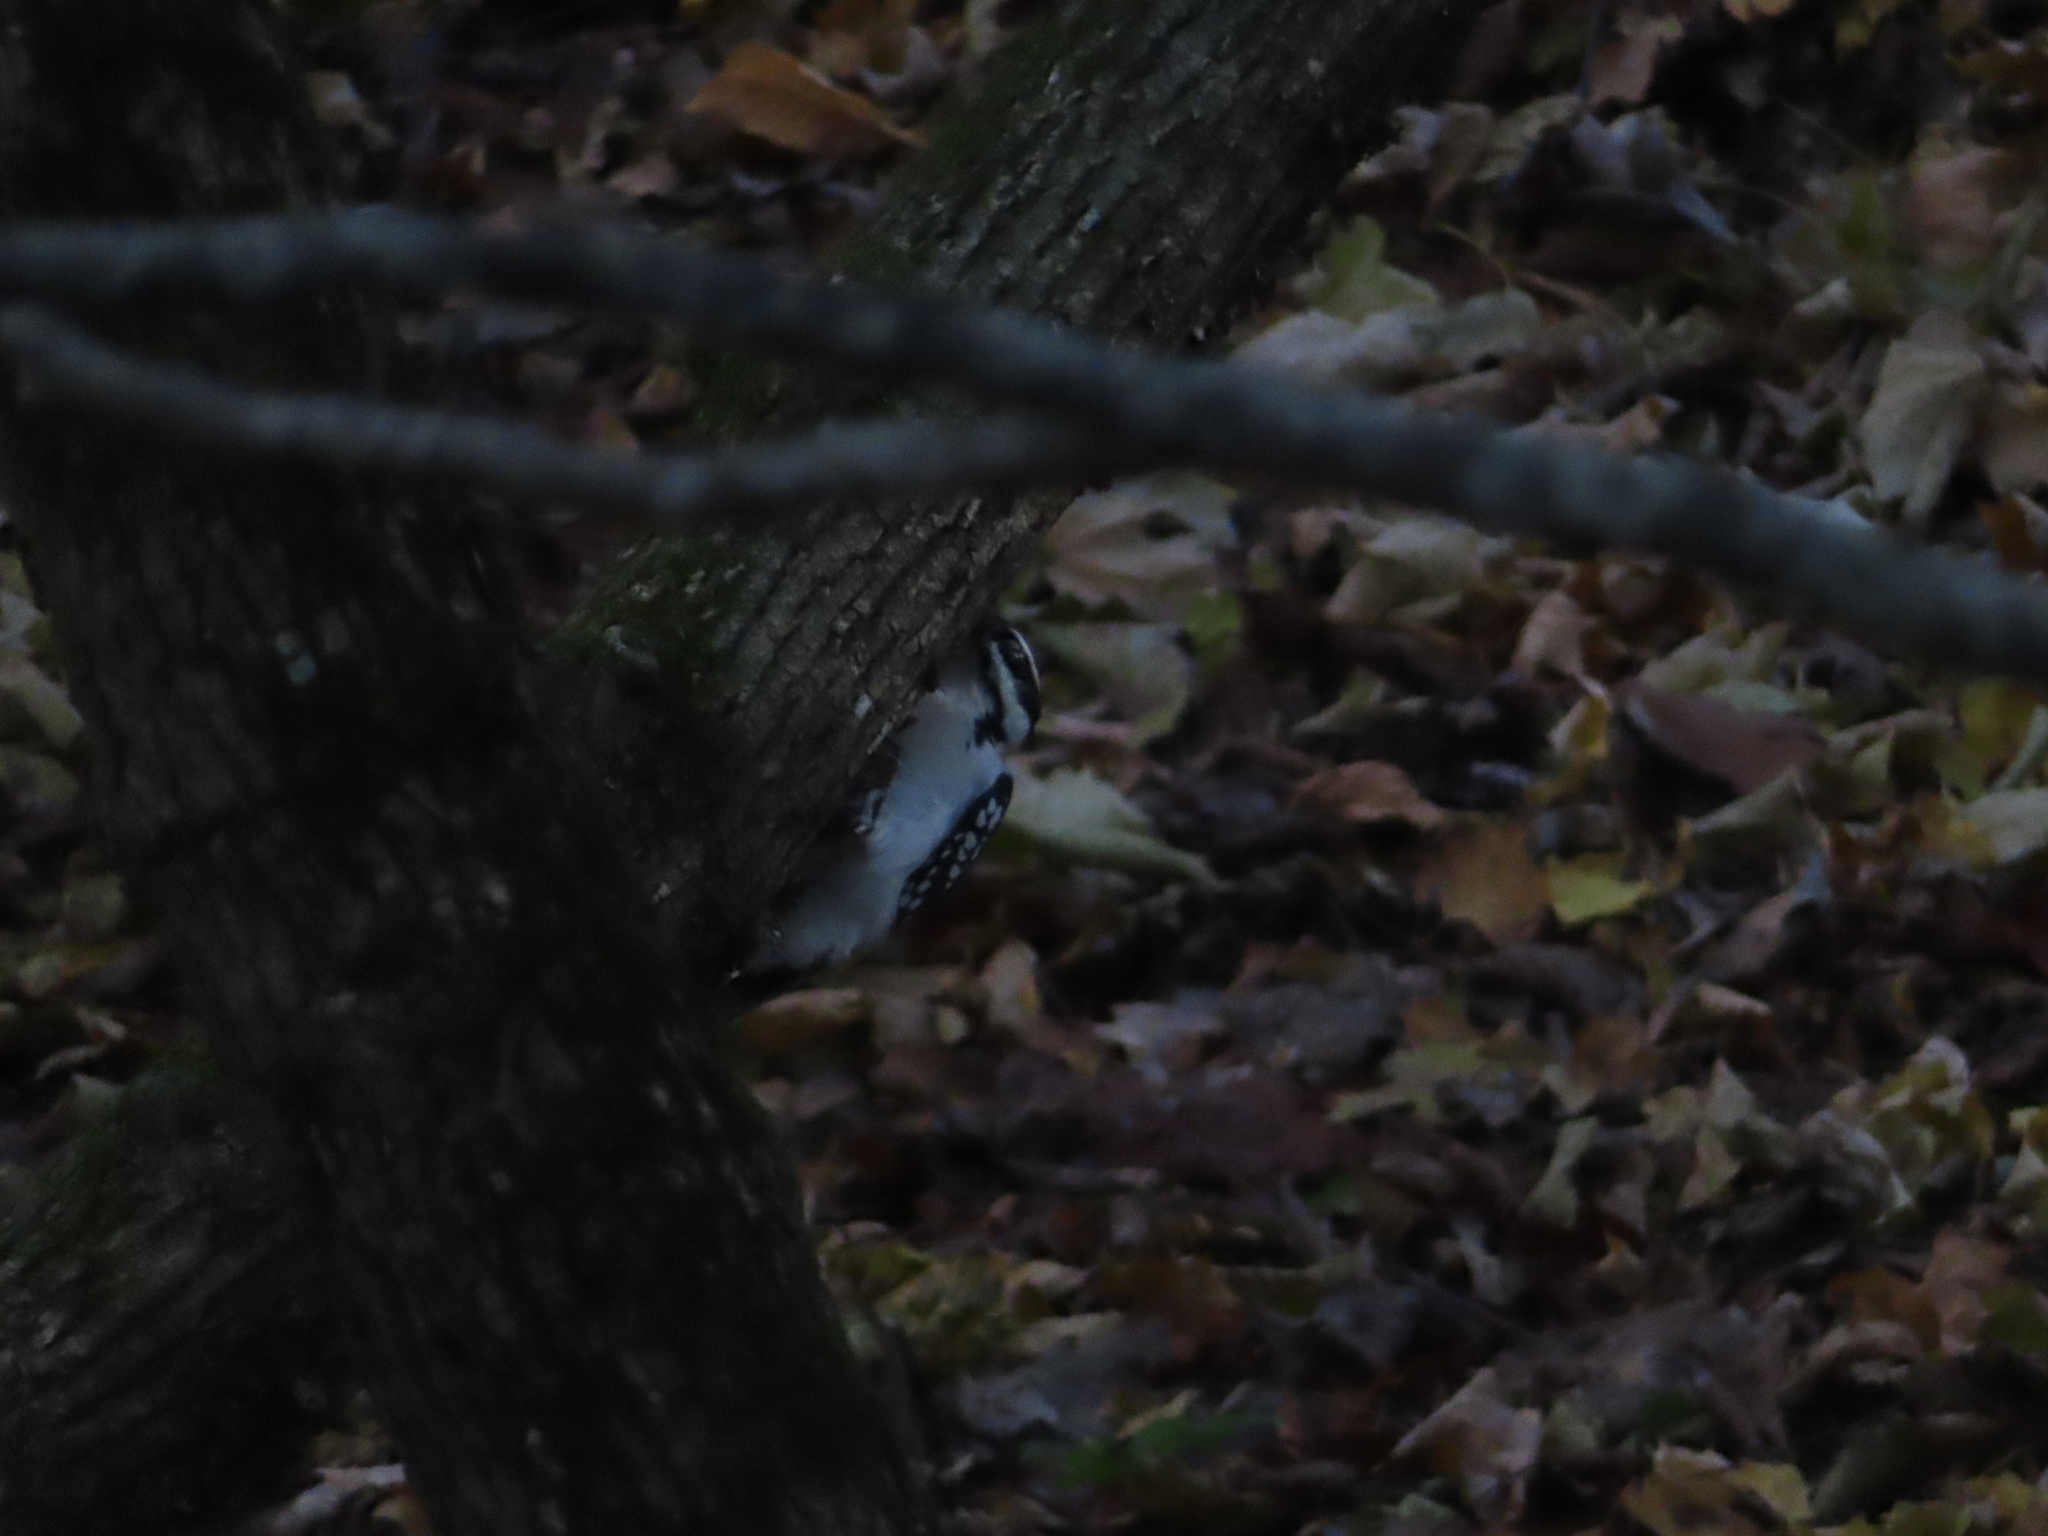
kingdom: Animalia
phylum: Chordata
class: Aves
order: Piciformes
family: Picidae
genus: Leuconotopicus
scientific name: Leuconotopicus villosus
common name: Hairy woodpecker
